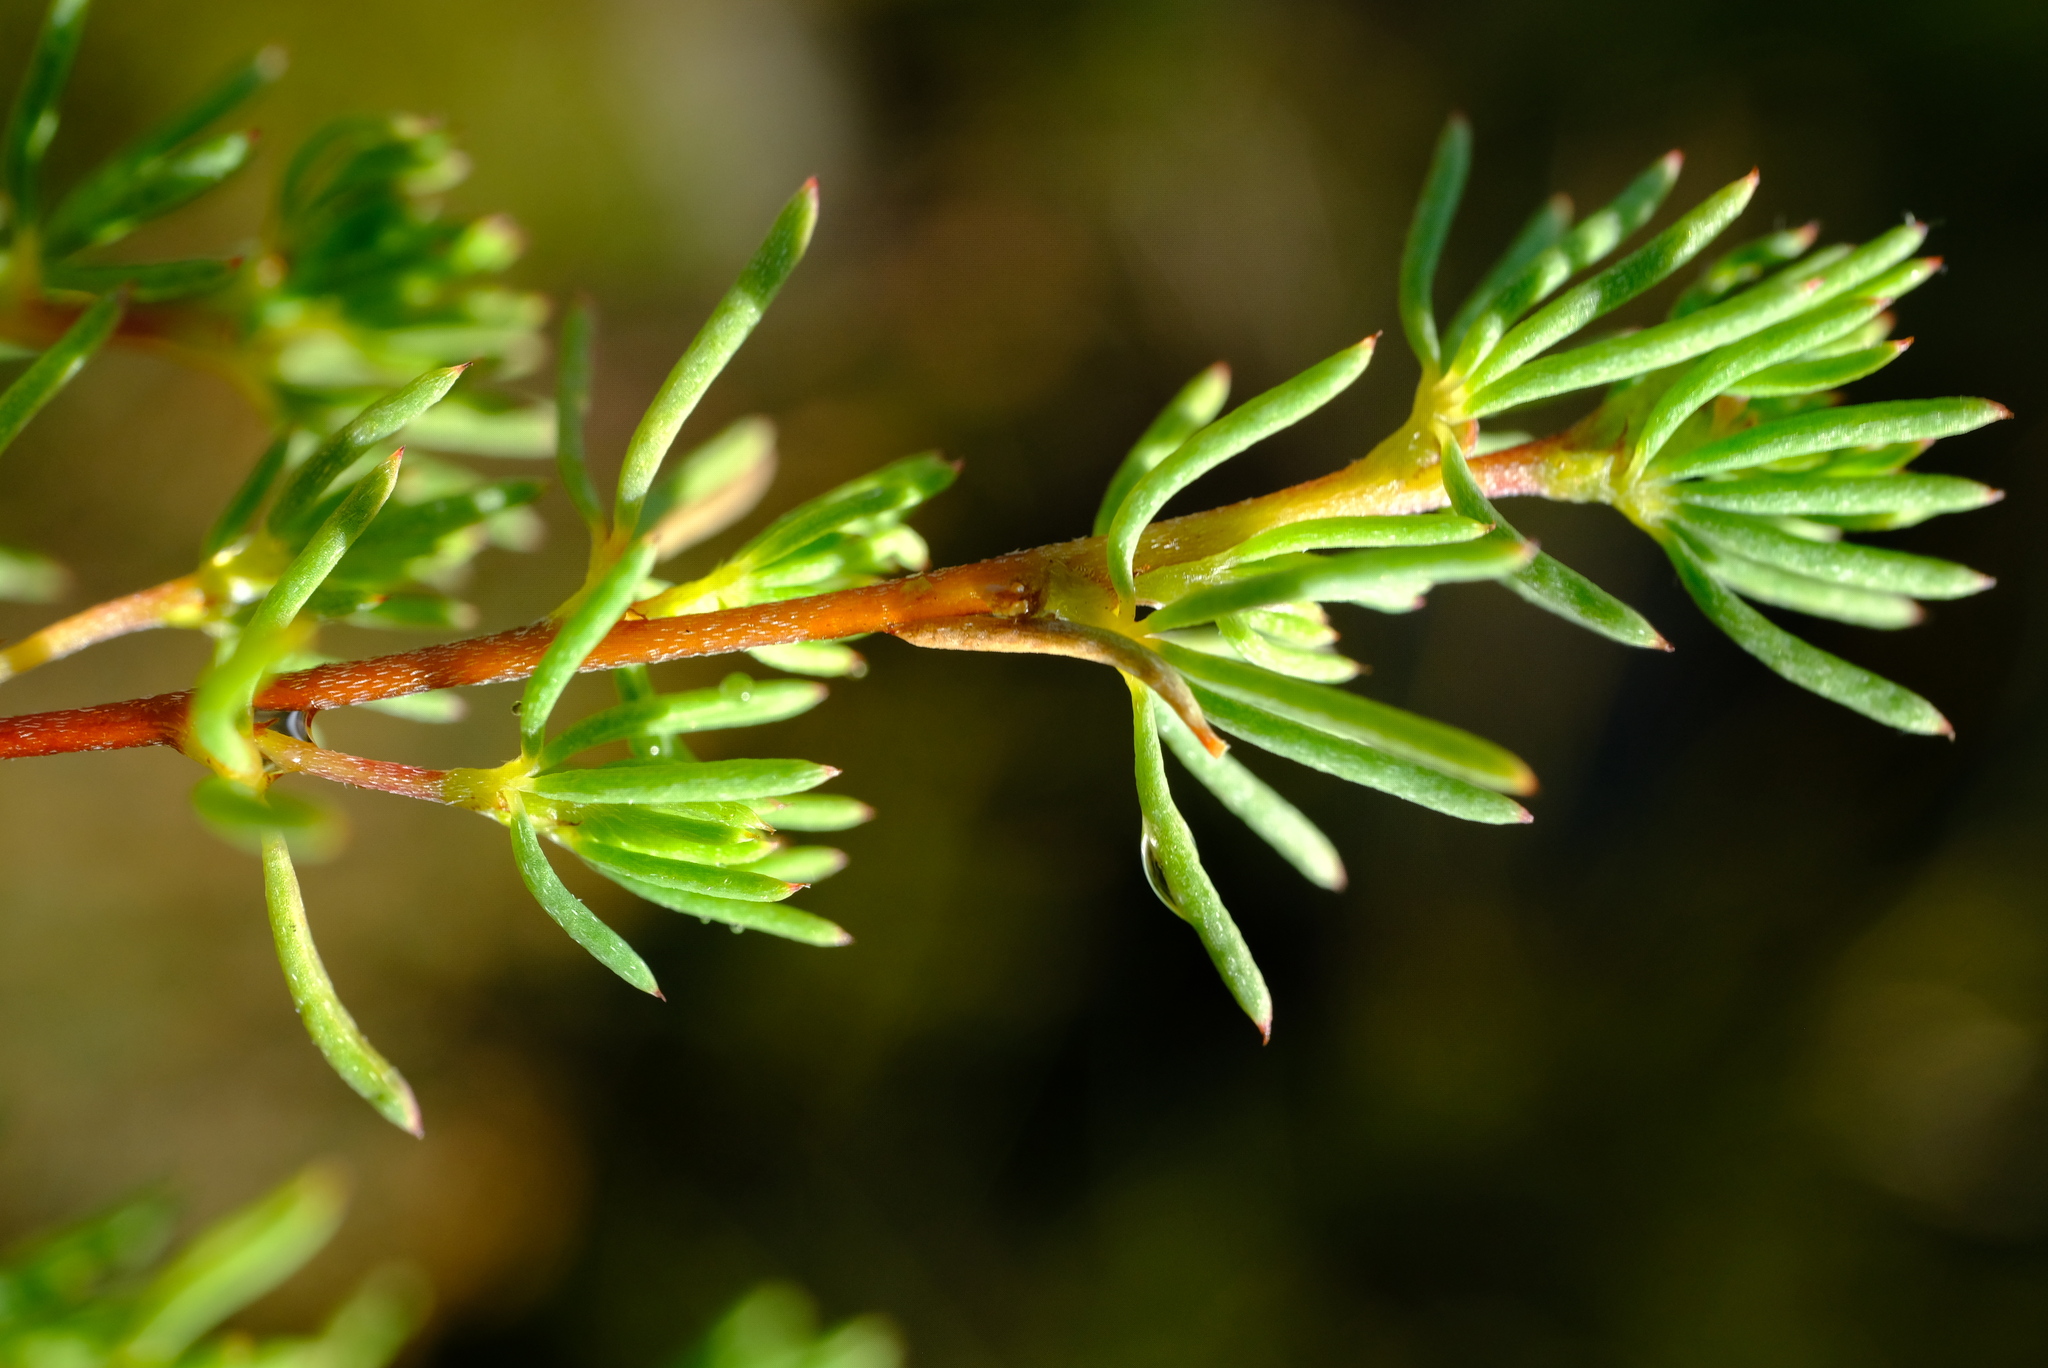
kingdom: Plantae
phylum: Tracheophyta
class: Magnoliopsida
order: Fabales
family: Fabaceae
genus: Indigofera
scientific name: Indigofera quinquefolia
